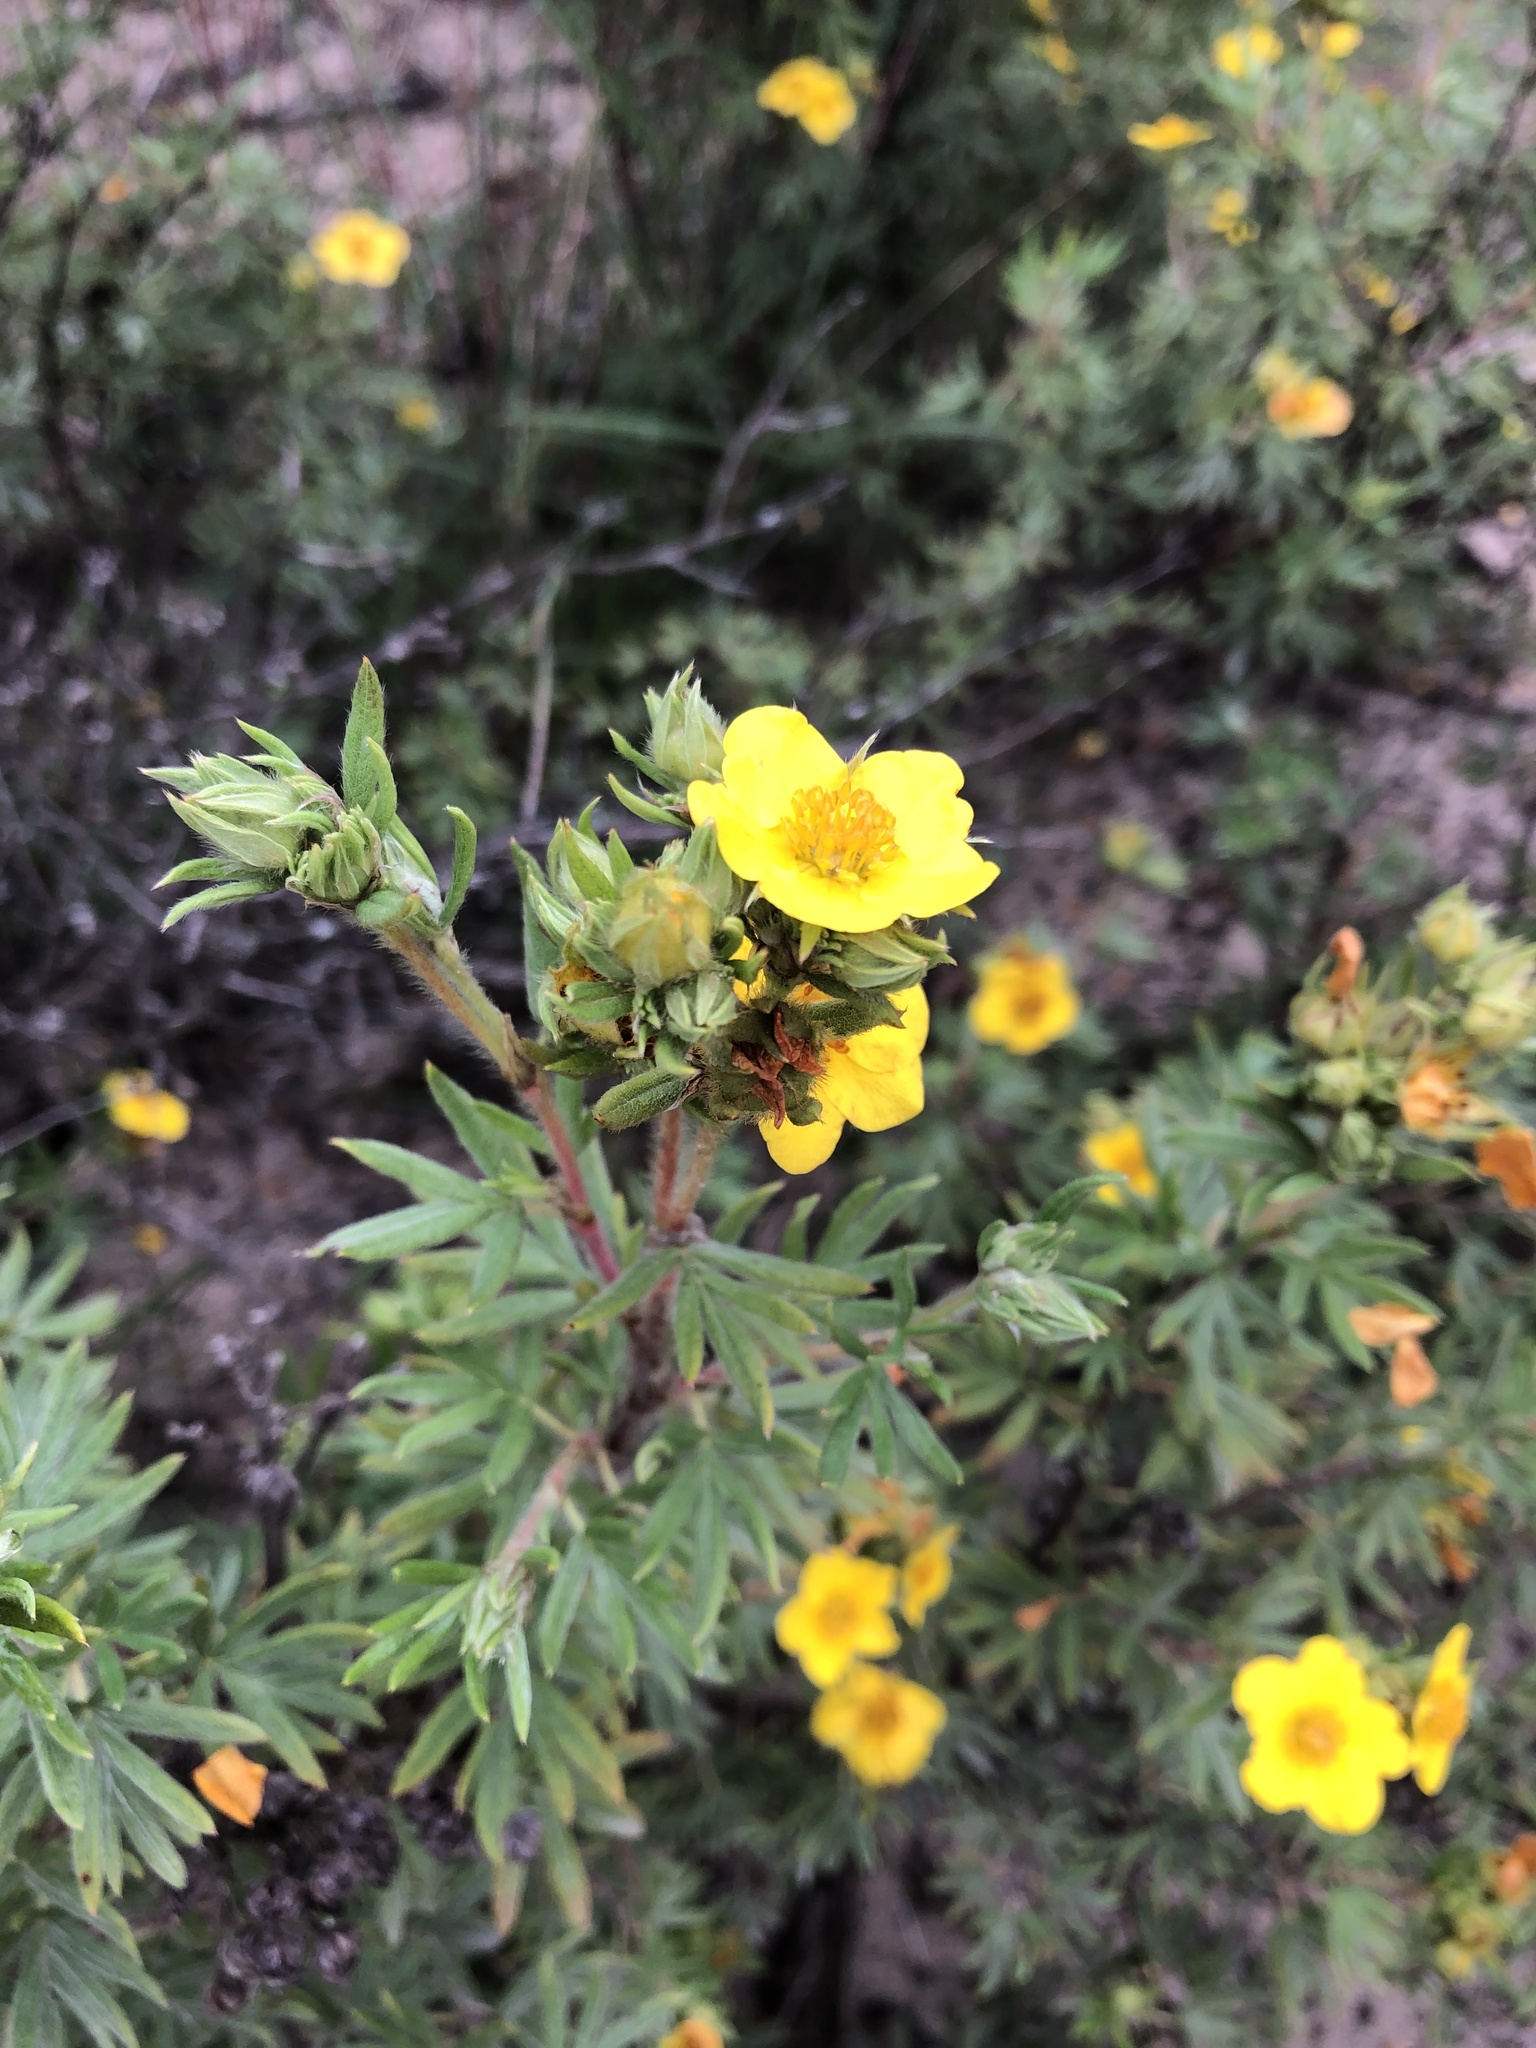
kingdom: Plantae
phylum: Tracheophyta
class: Magnoliopsida
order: Rosales
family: Rosaceae
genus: Dasiphora
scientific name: Dasiphora fruticosa
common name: Shrubby cinquefoil
